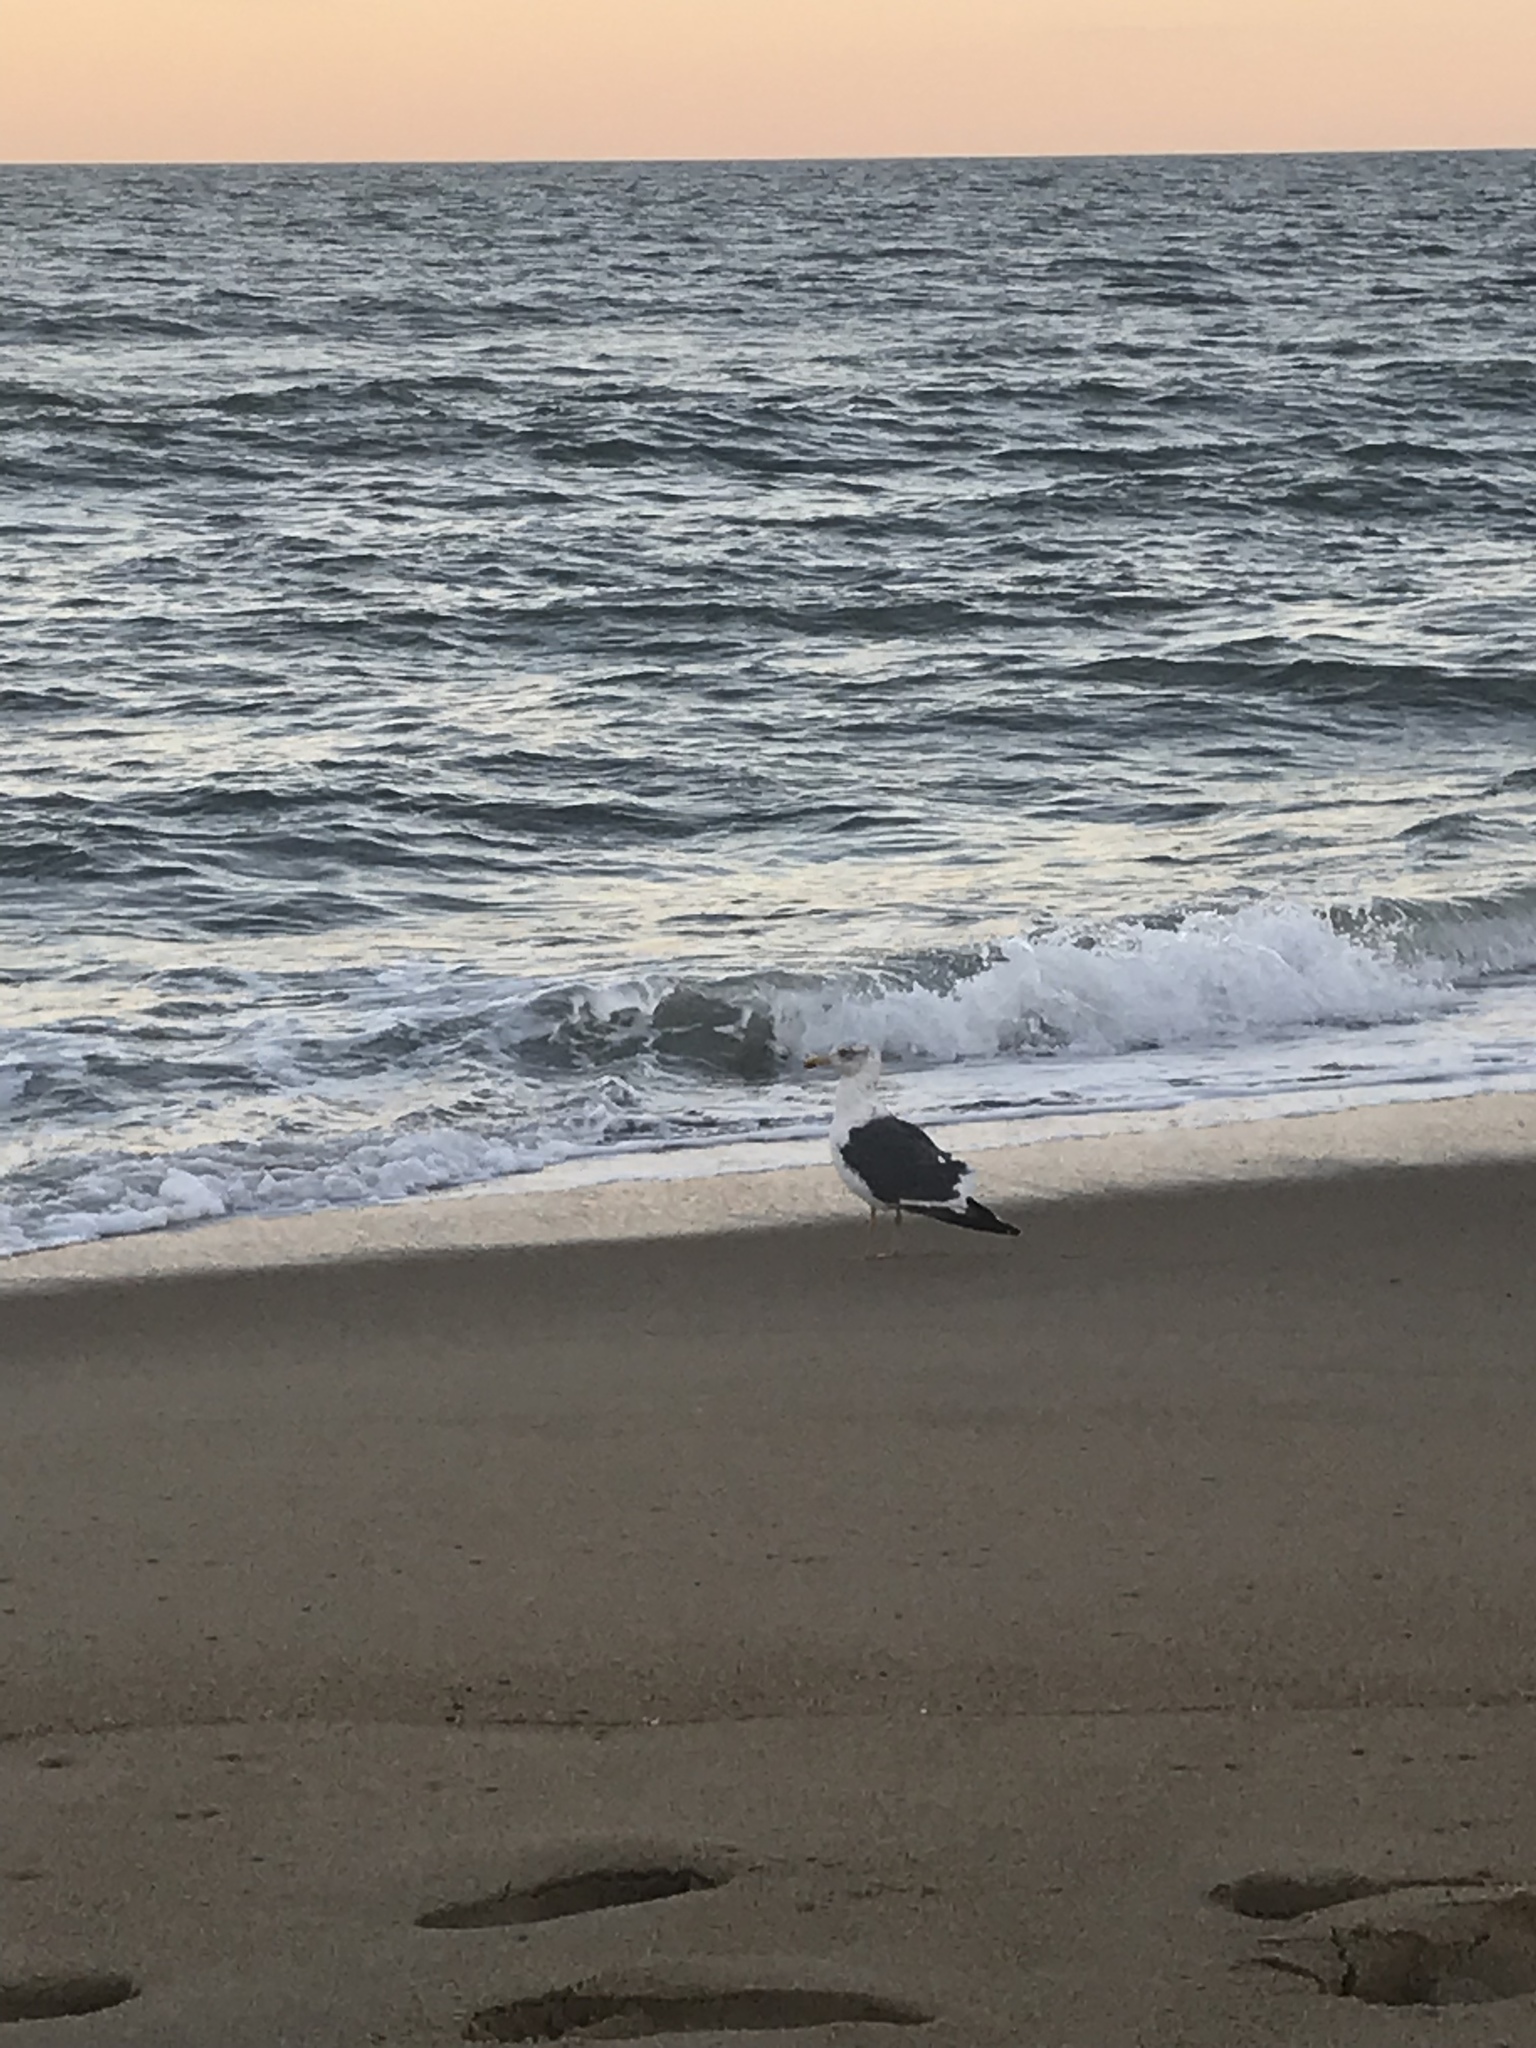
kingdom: Animalia
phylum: Chordata
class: Aves
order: Charadriiformes
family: Laridae
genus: Larus
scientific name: Larus fuscus
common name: Lesser black-backed gull
